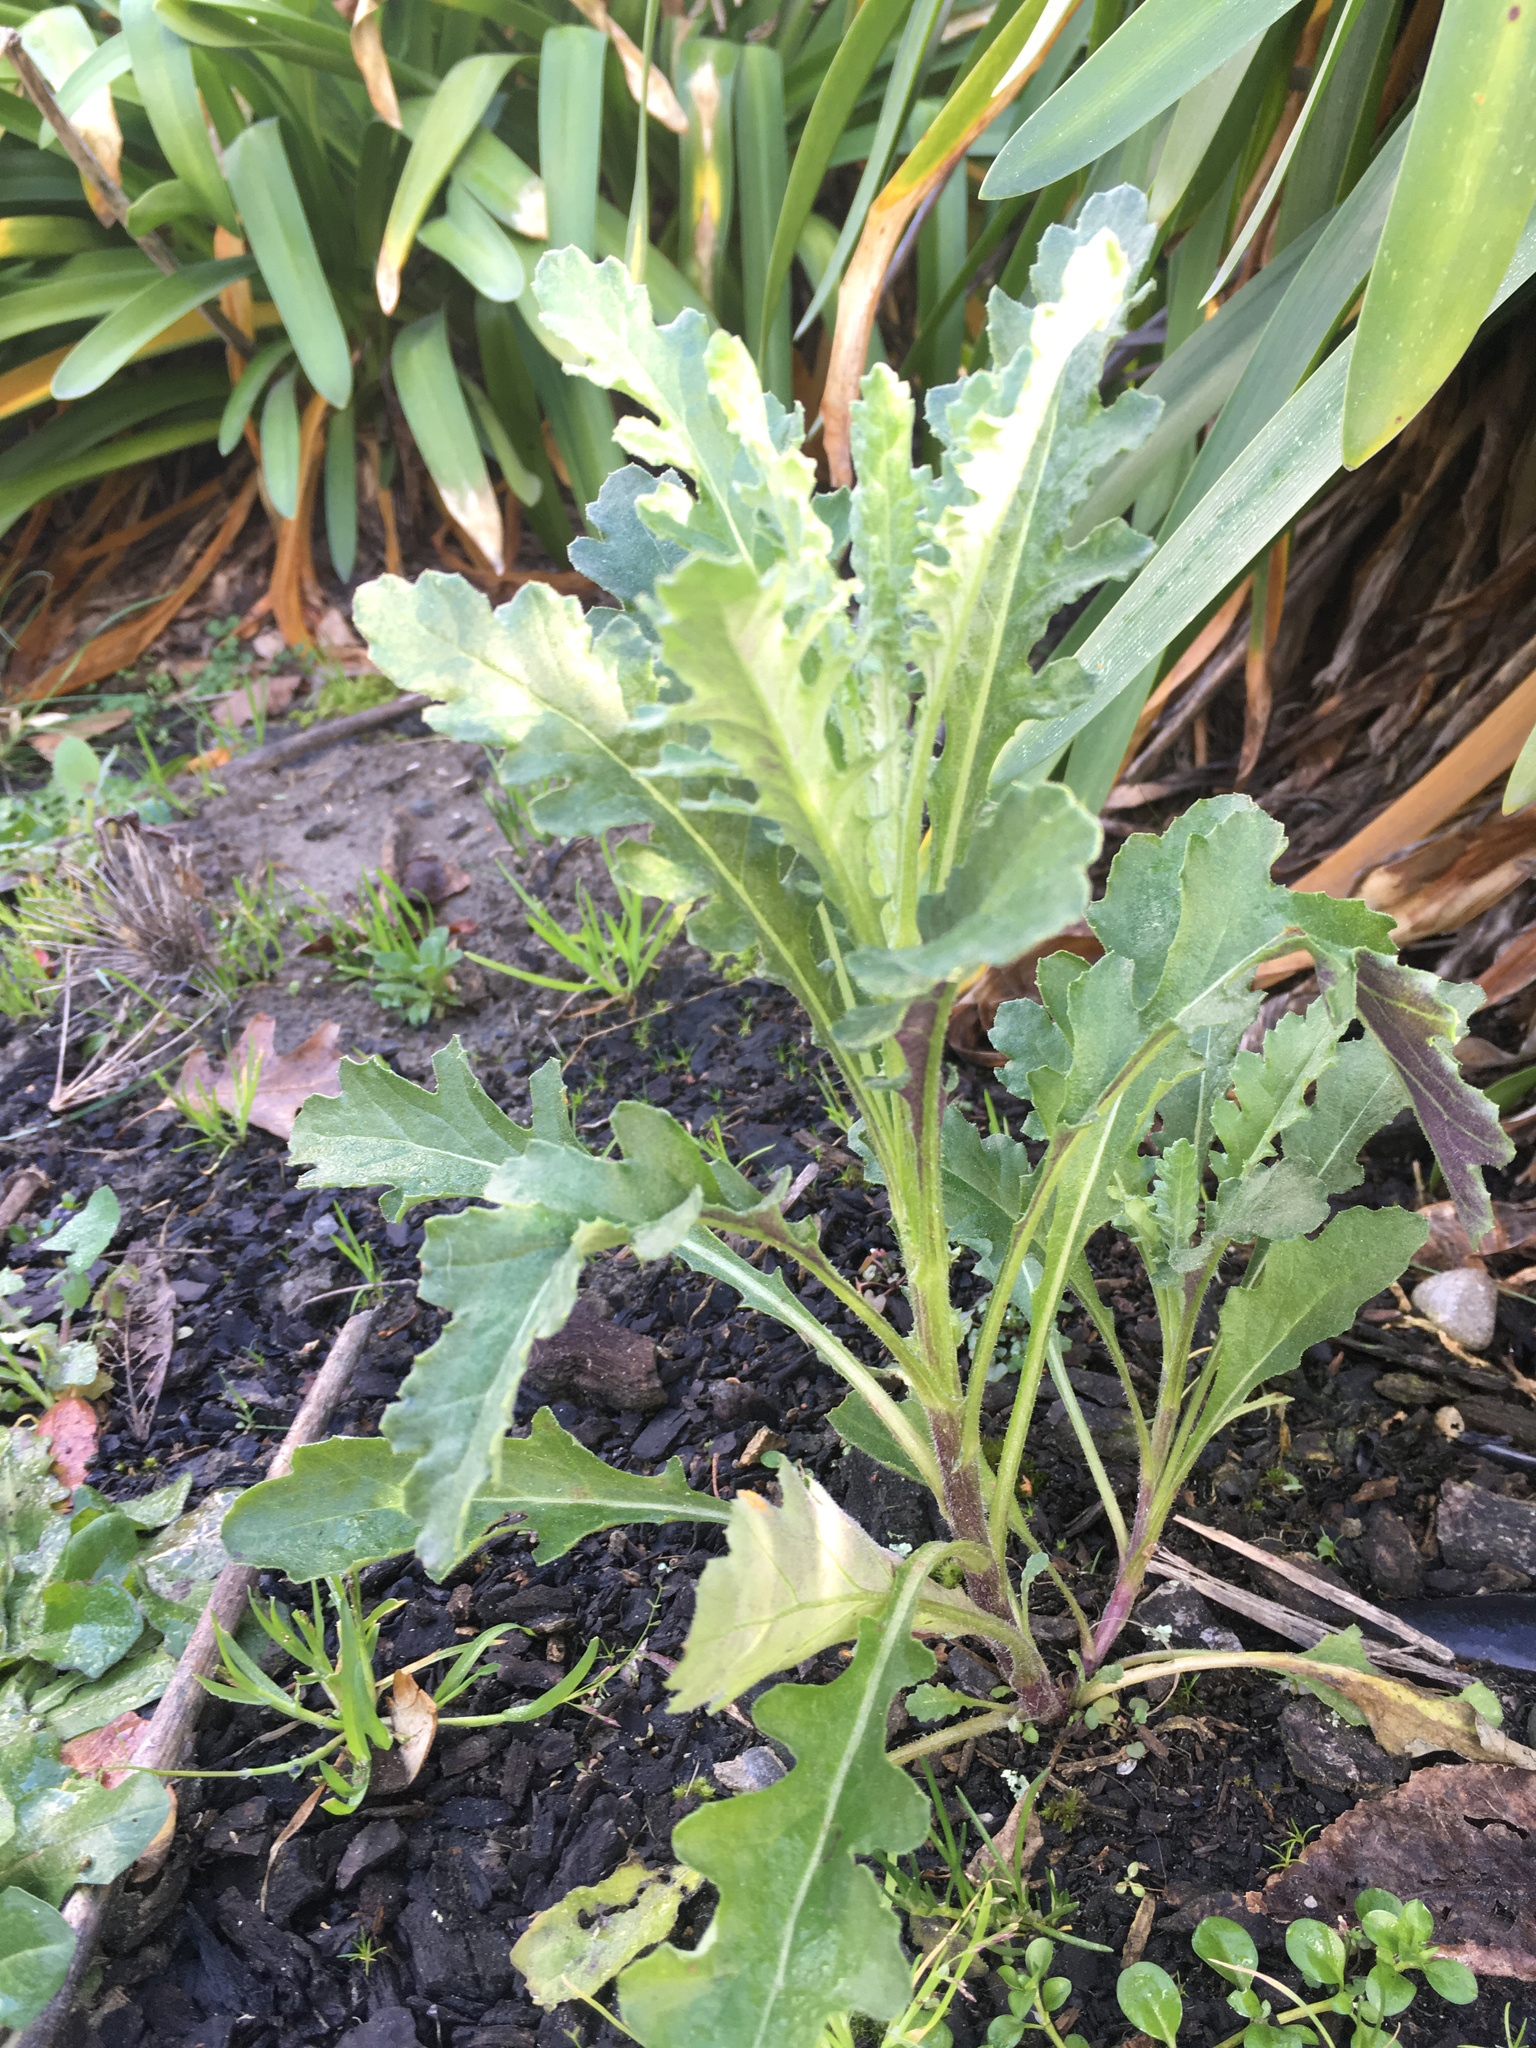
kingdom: Plantae
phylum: Tracheophyta
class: Magnoliopsida
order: Asterales
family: Asteraceae
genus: Senecio
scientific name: Senecio glomeratus
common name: Cutleaf burnweed
